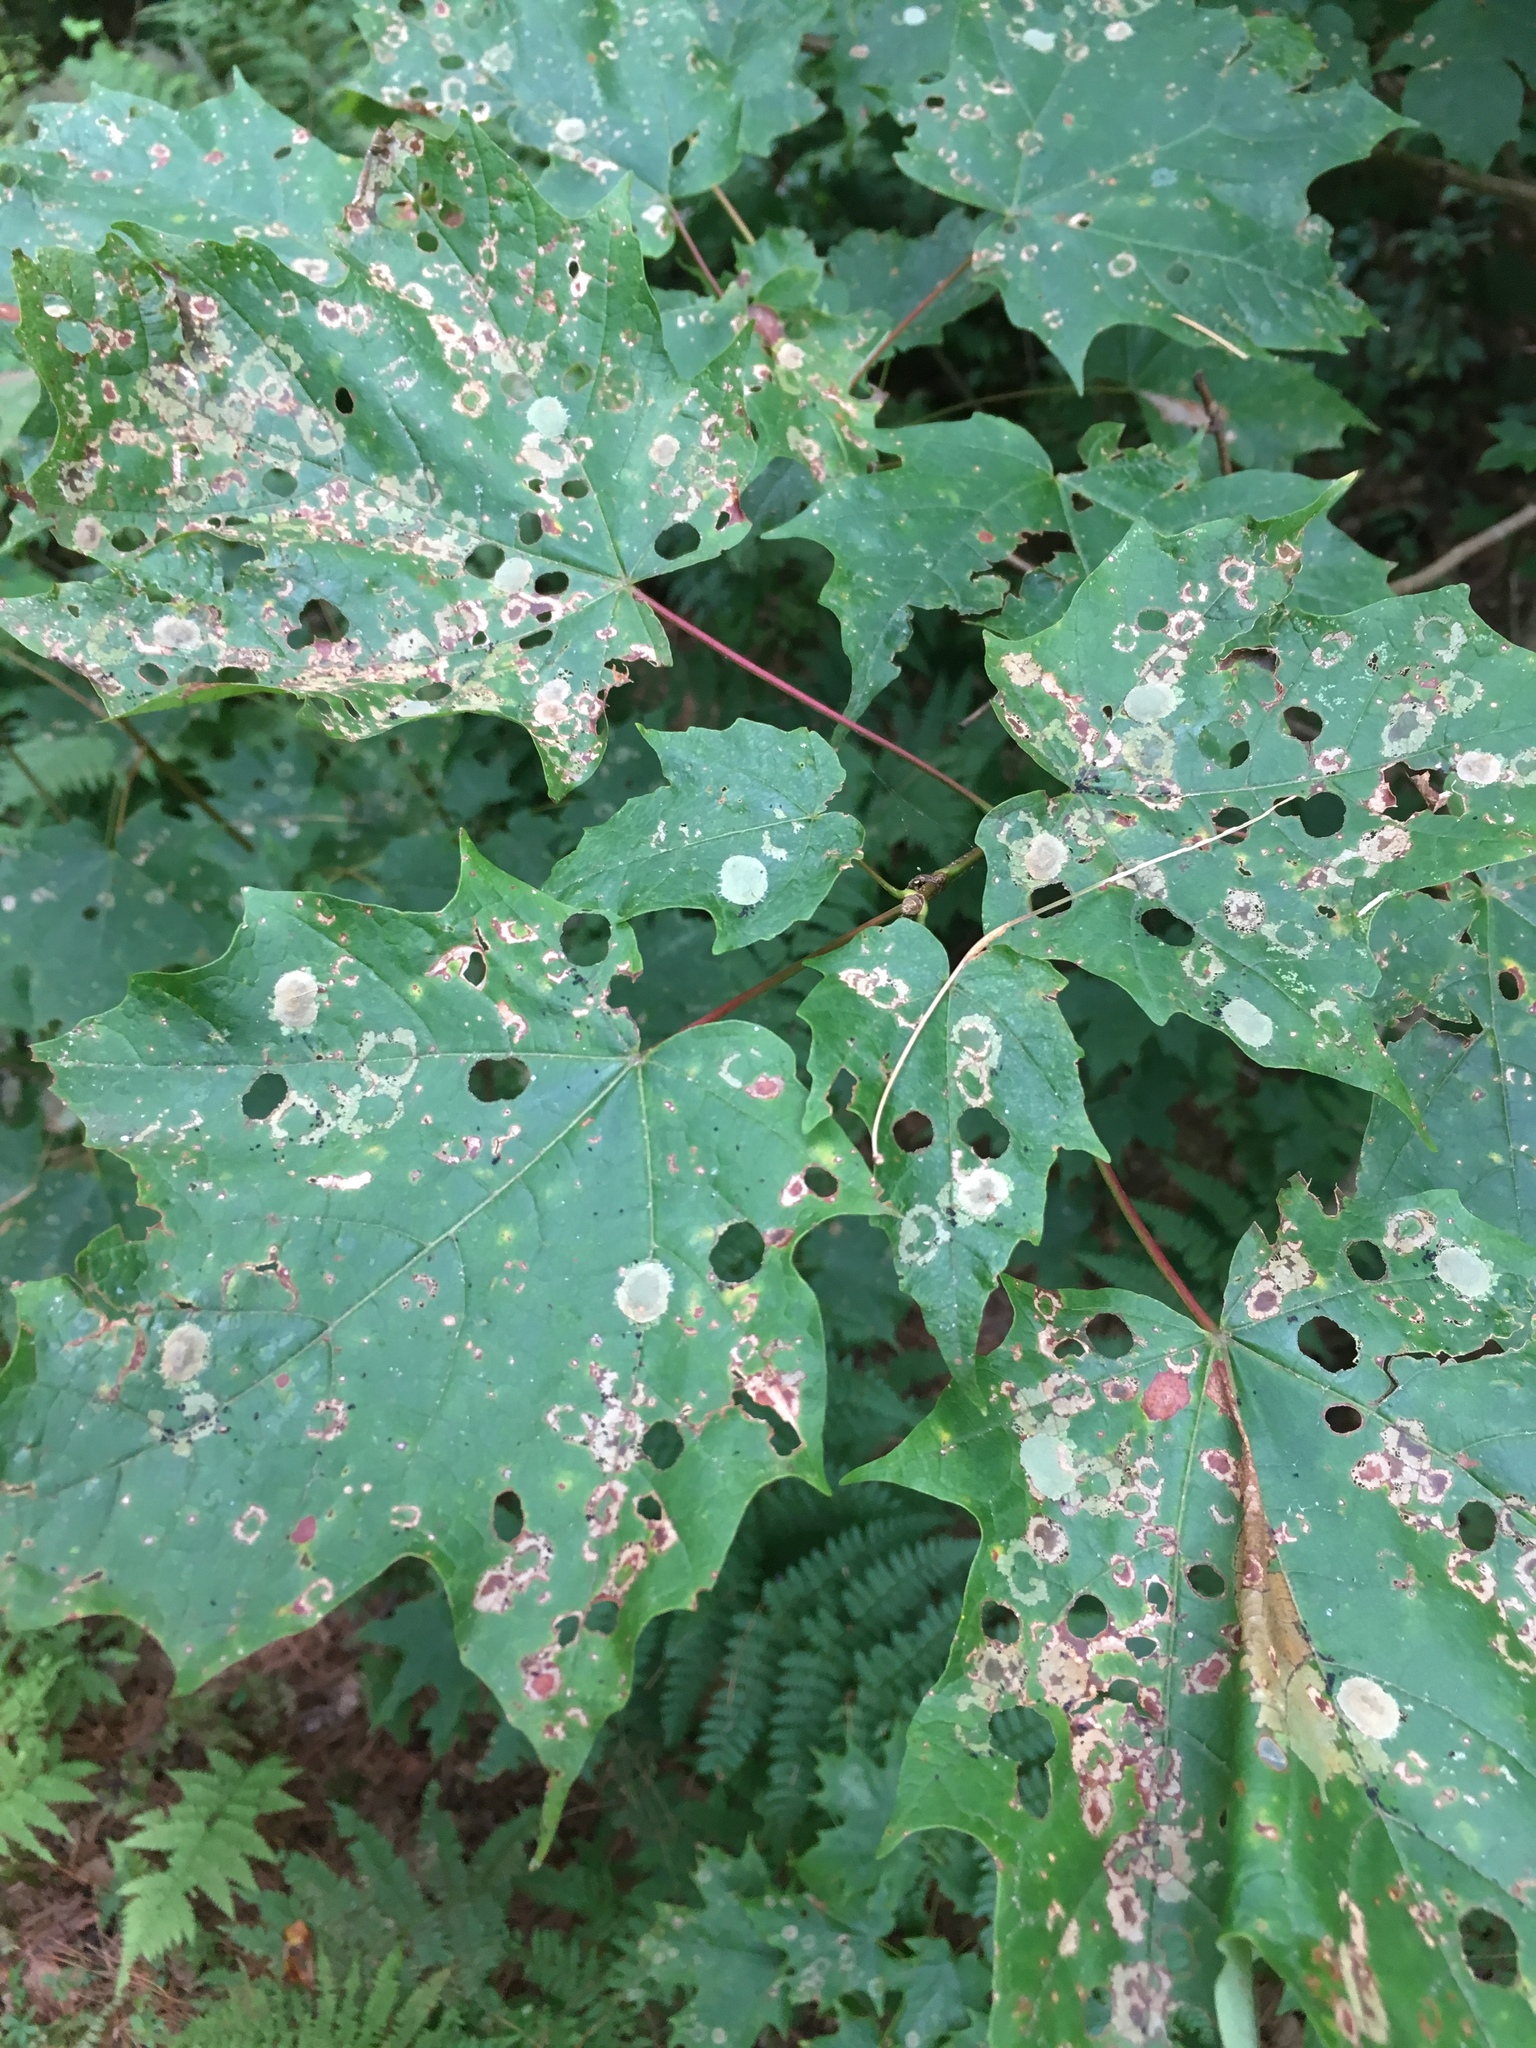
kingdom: Animalia
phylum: Arthropoda
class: Insecta
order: Lepidoptera
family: Incurvariidae
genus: Paraclemensia
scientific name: Paraclemensia acerifoliella
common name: Maple leafcutter
